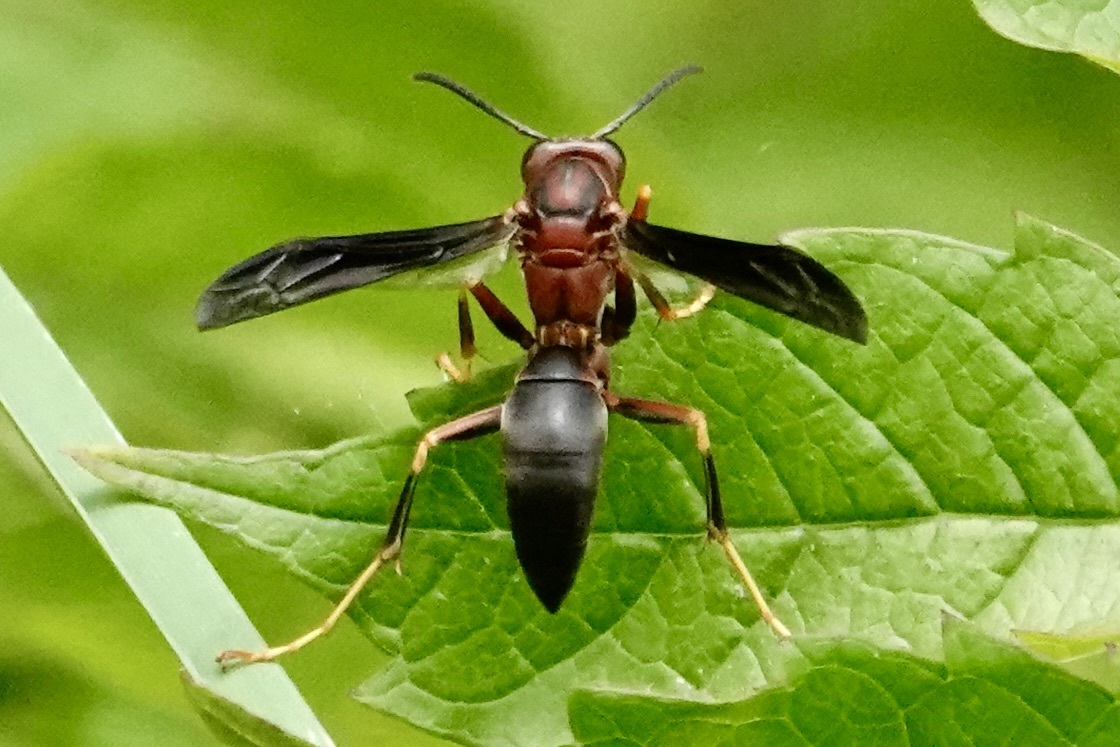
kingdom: Animalia
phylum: Arthropoda
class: Insecta
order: Hymenoptera
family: Eumenidae
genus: Polistes
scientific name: Polistes metricus
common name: Metric paper wasp
